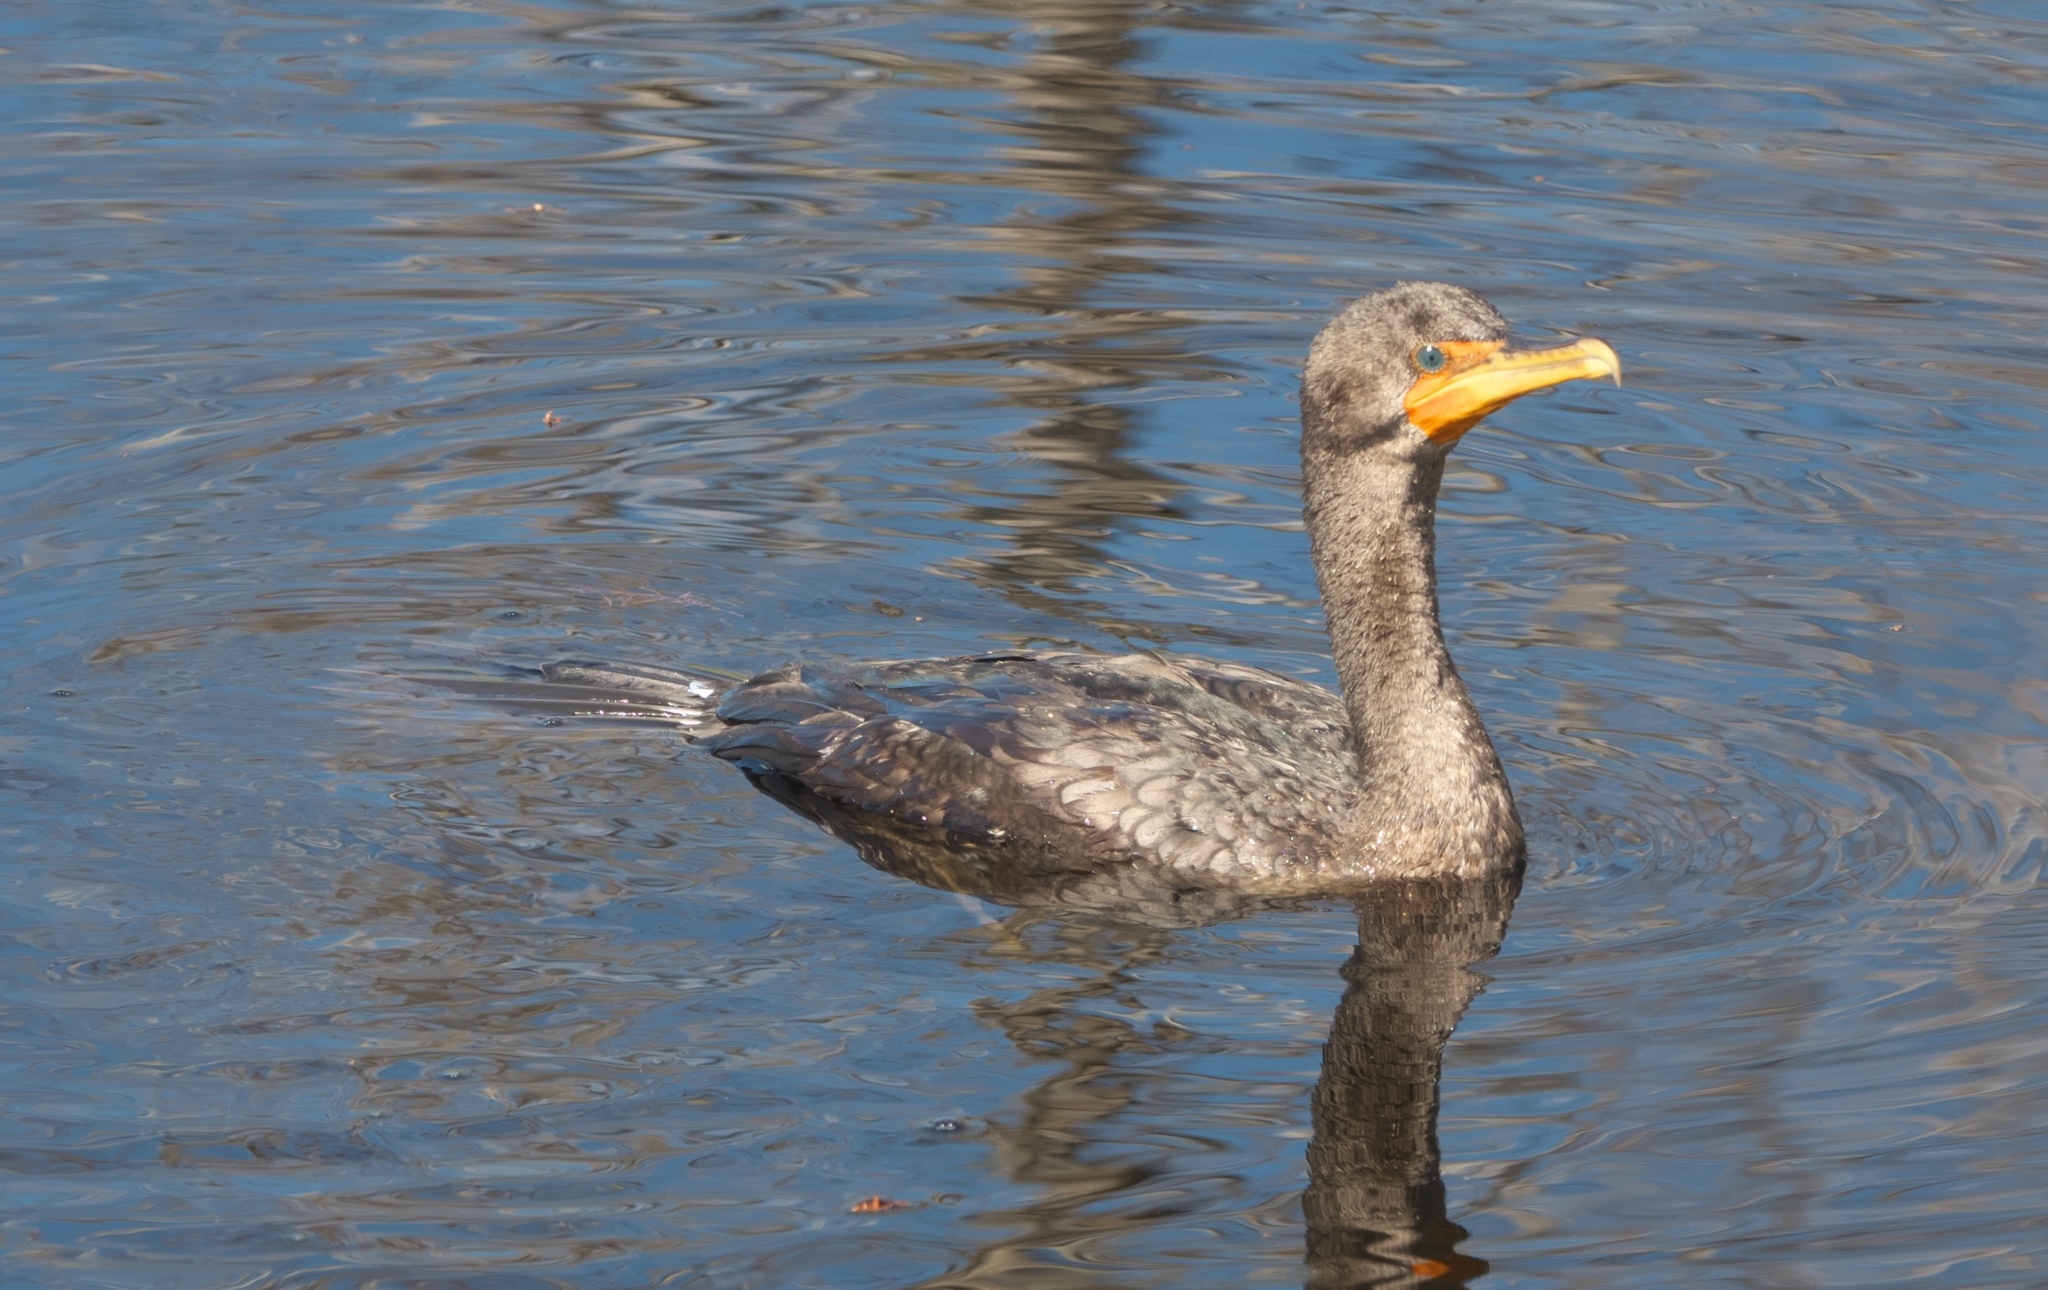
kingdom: Animalia
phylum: Chordata
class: Aves
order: Suliformes
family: Phalacrocoracidae
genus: Phalacrocorax
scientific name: Phalacrocorax auritus
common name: Double-crested cormorant
